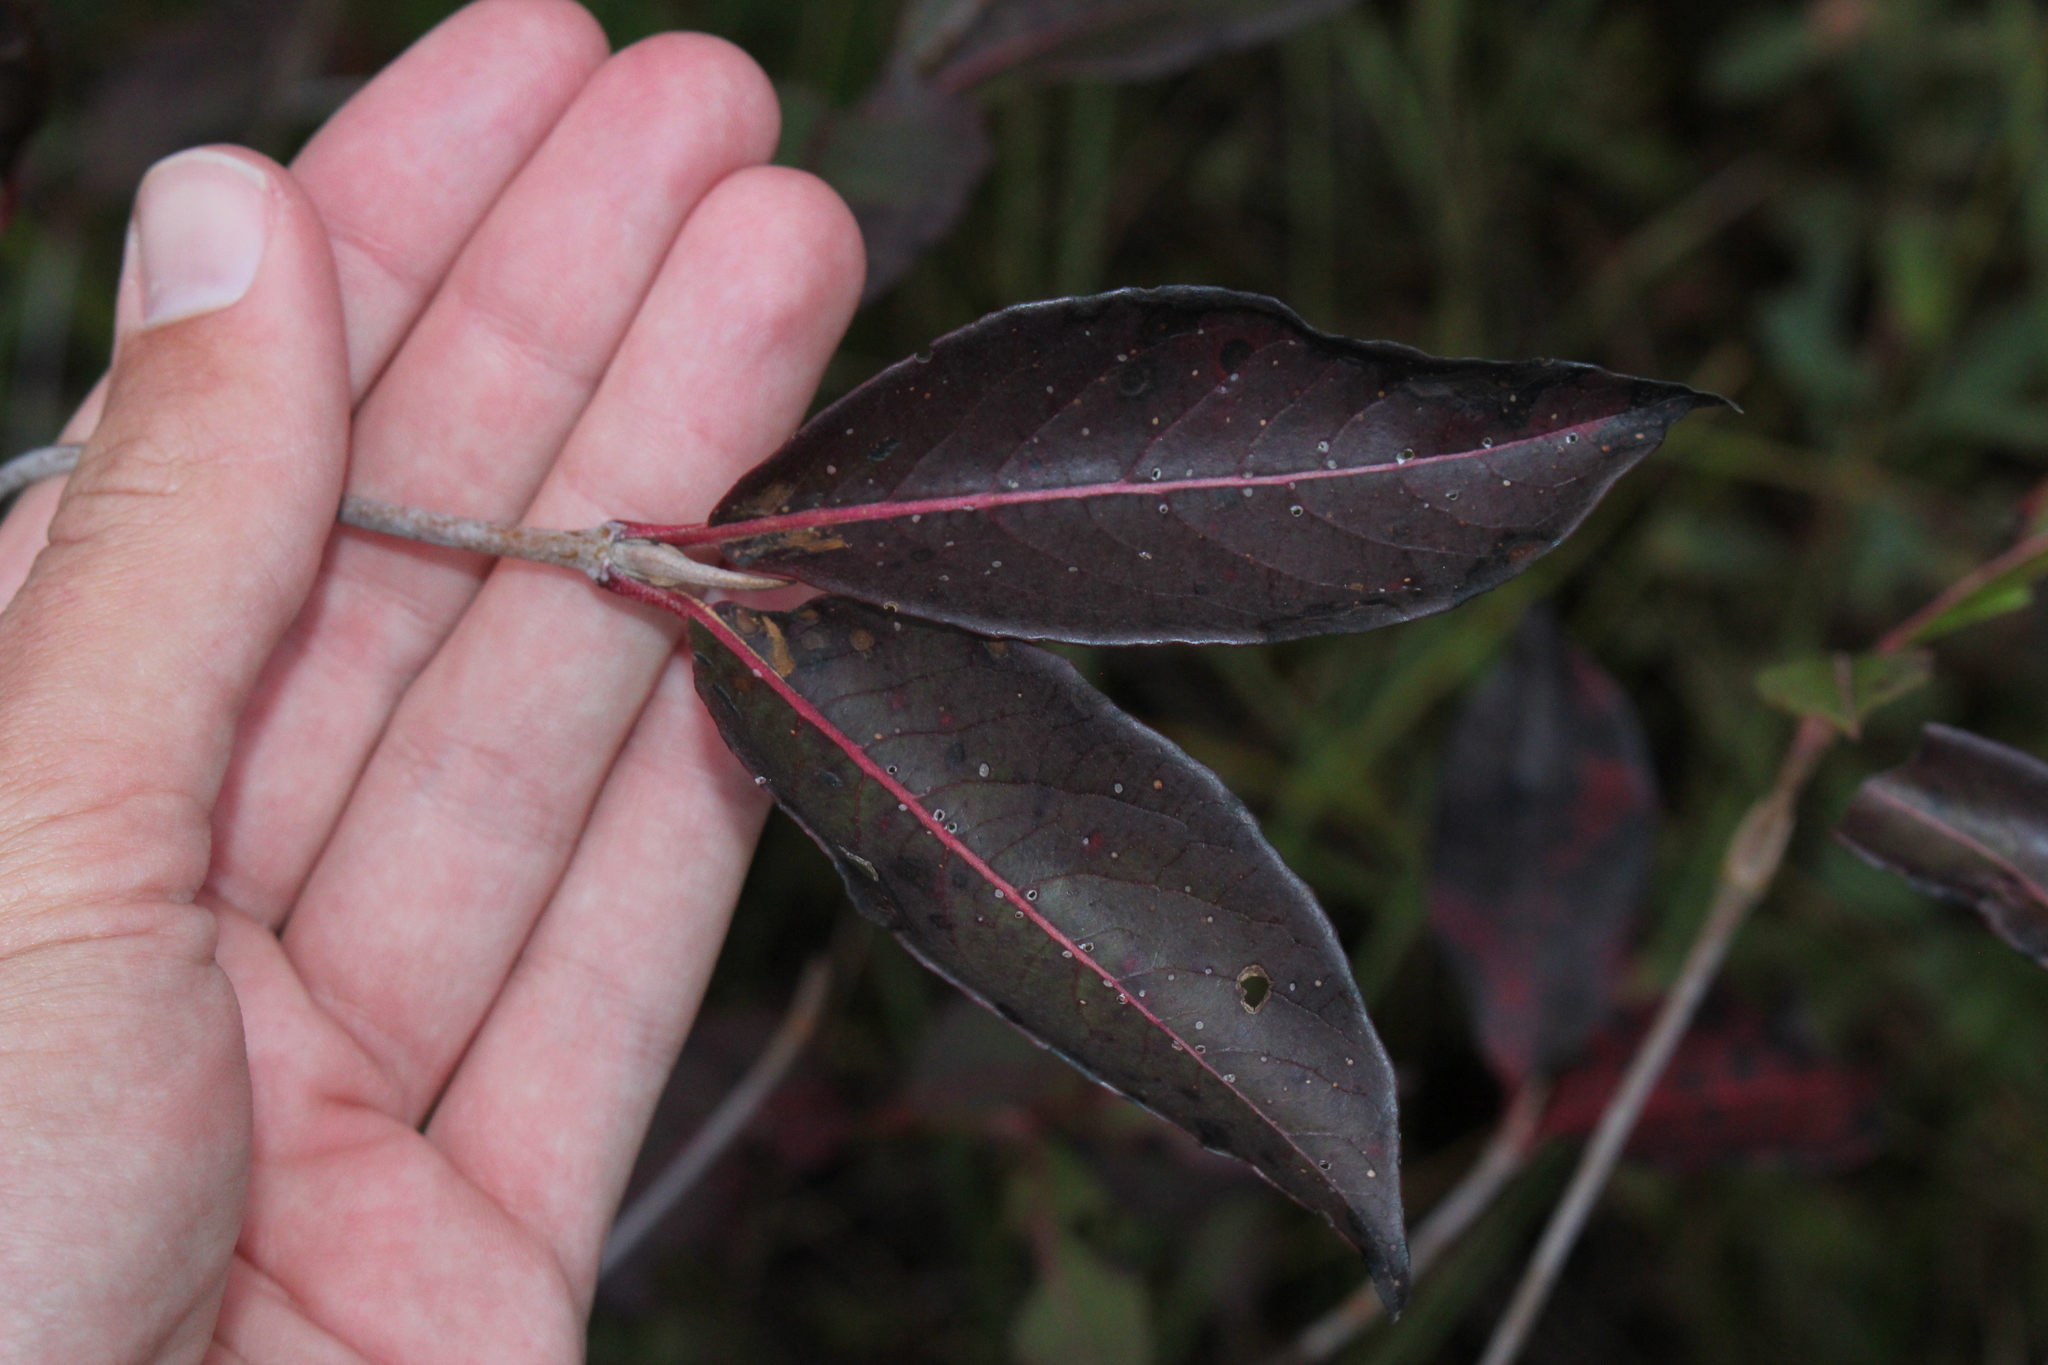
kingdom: Plantae
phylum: Tracheophyta
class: Magnoliopsida
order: Dipsacales
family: Viburnaceae
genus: Viburnum
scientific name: Viburnum cassinoides
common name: Swamp haw
